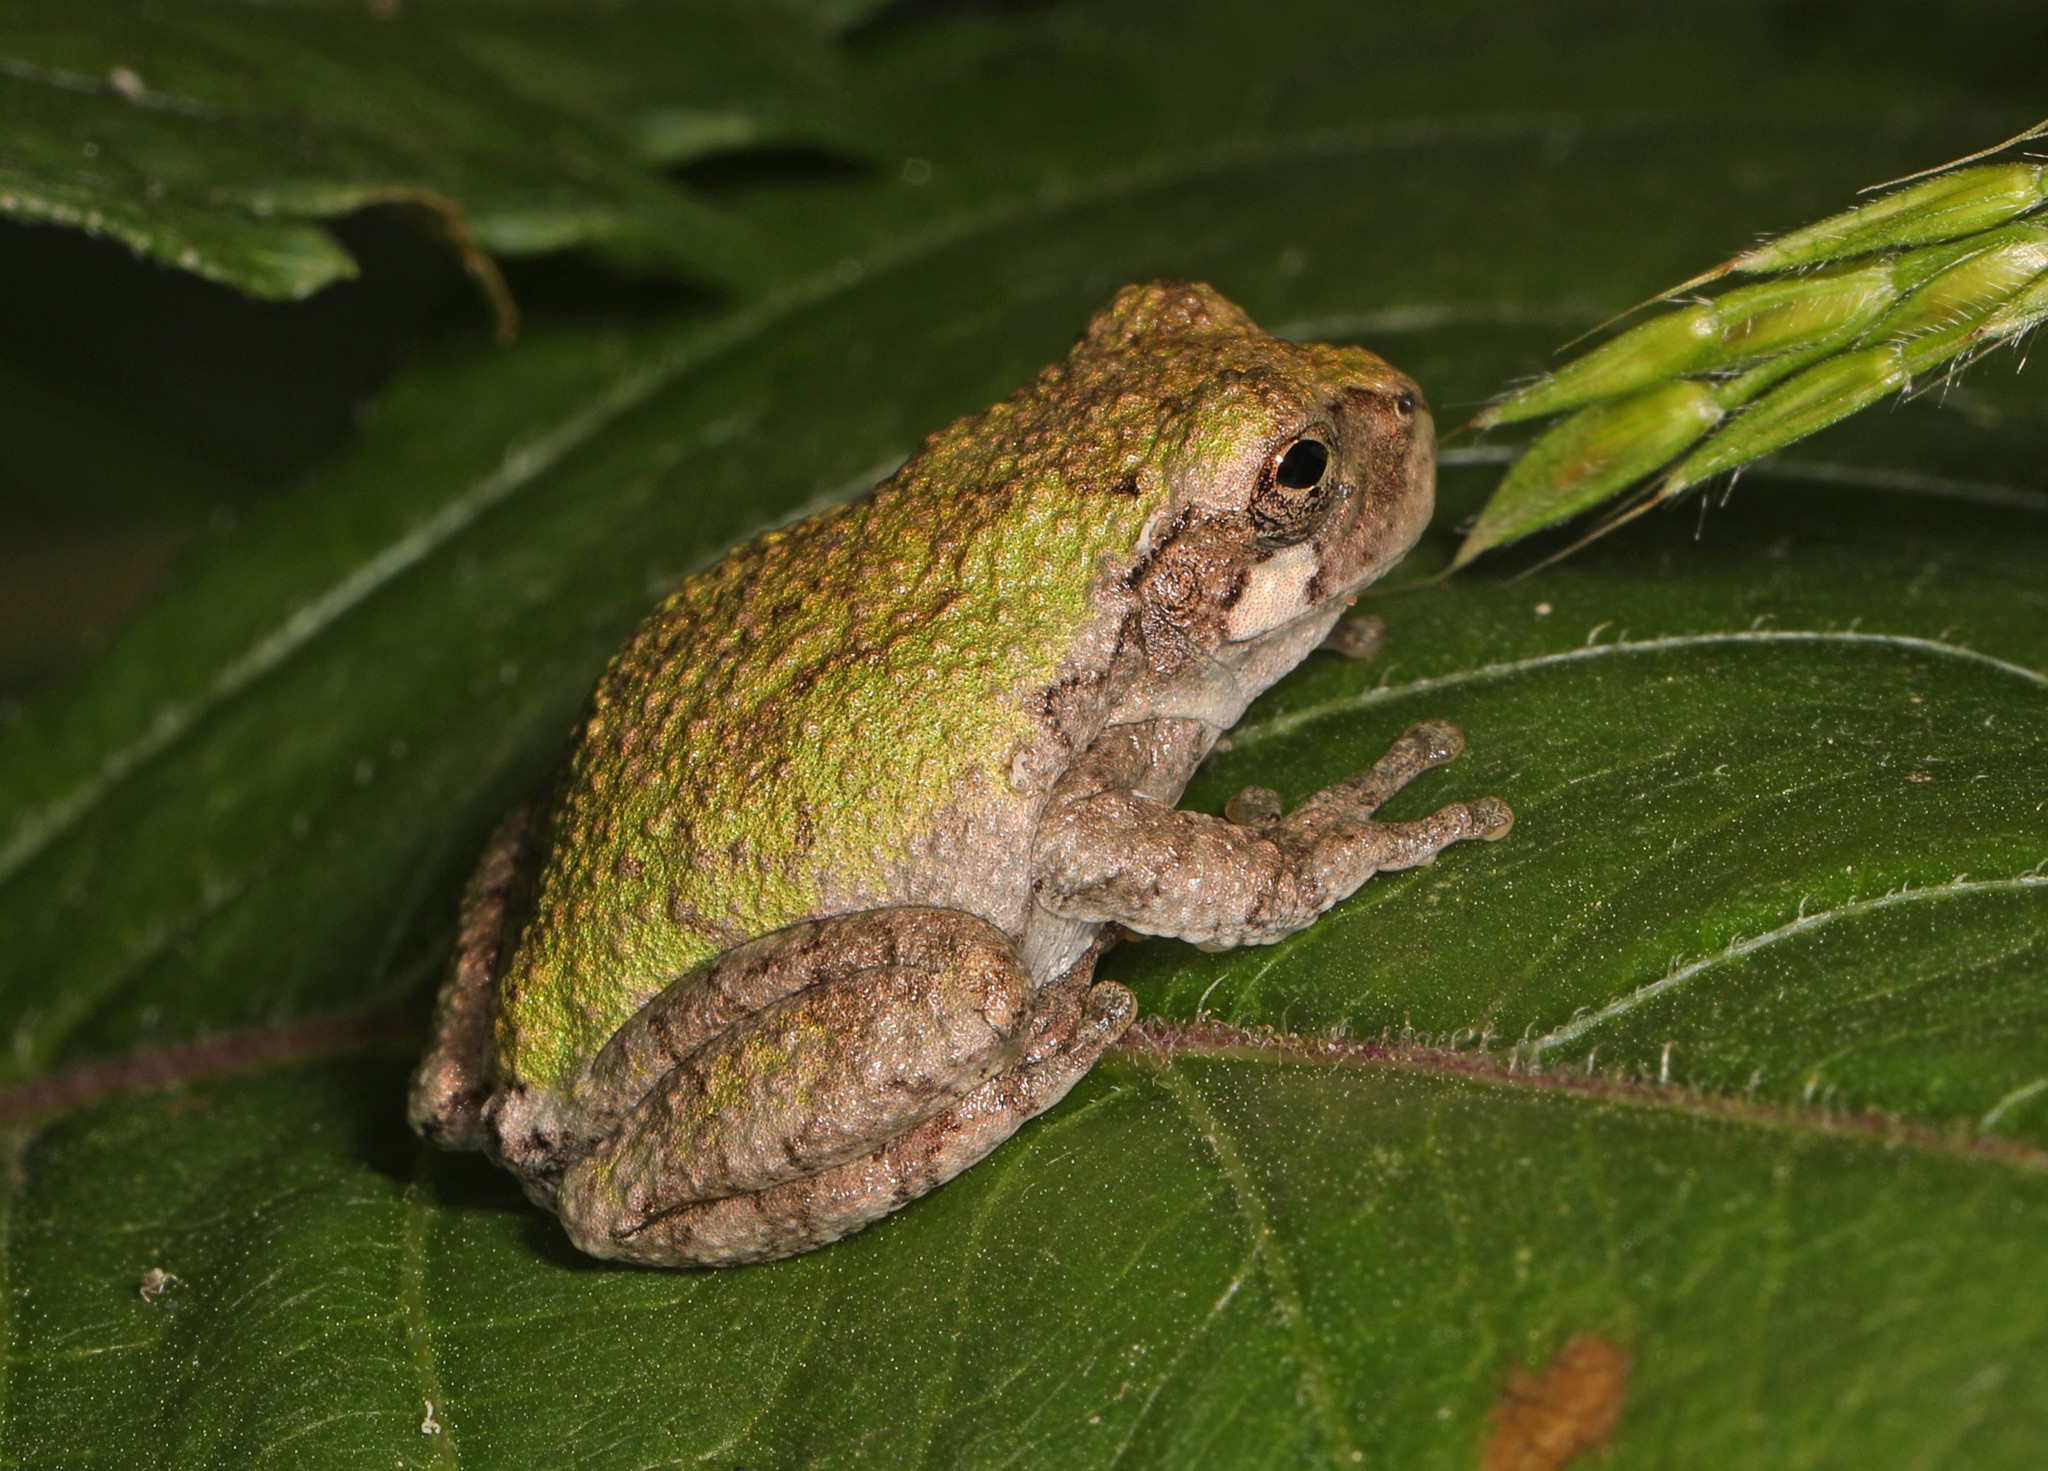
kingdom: Animalia
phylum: Chordata
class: Amphibia
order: Anura
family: Hylidae
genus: Hyla
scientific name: Hyla
